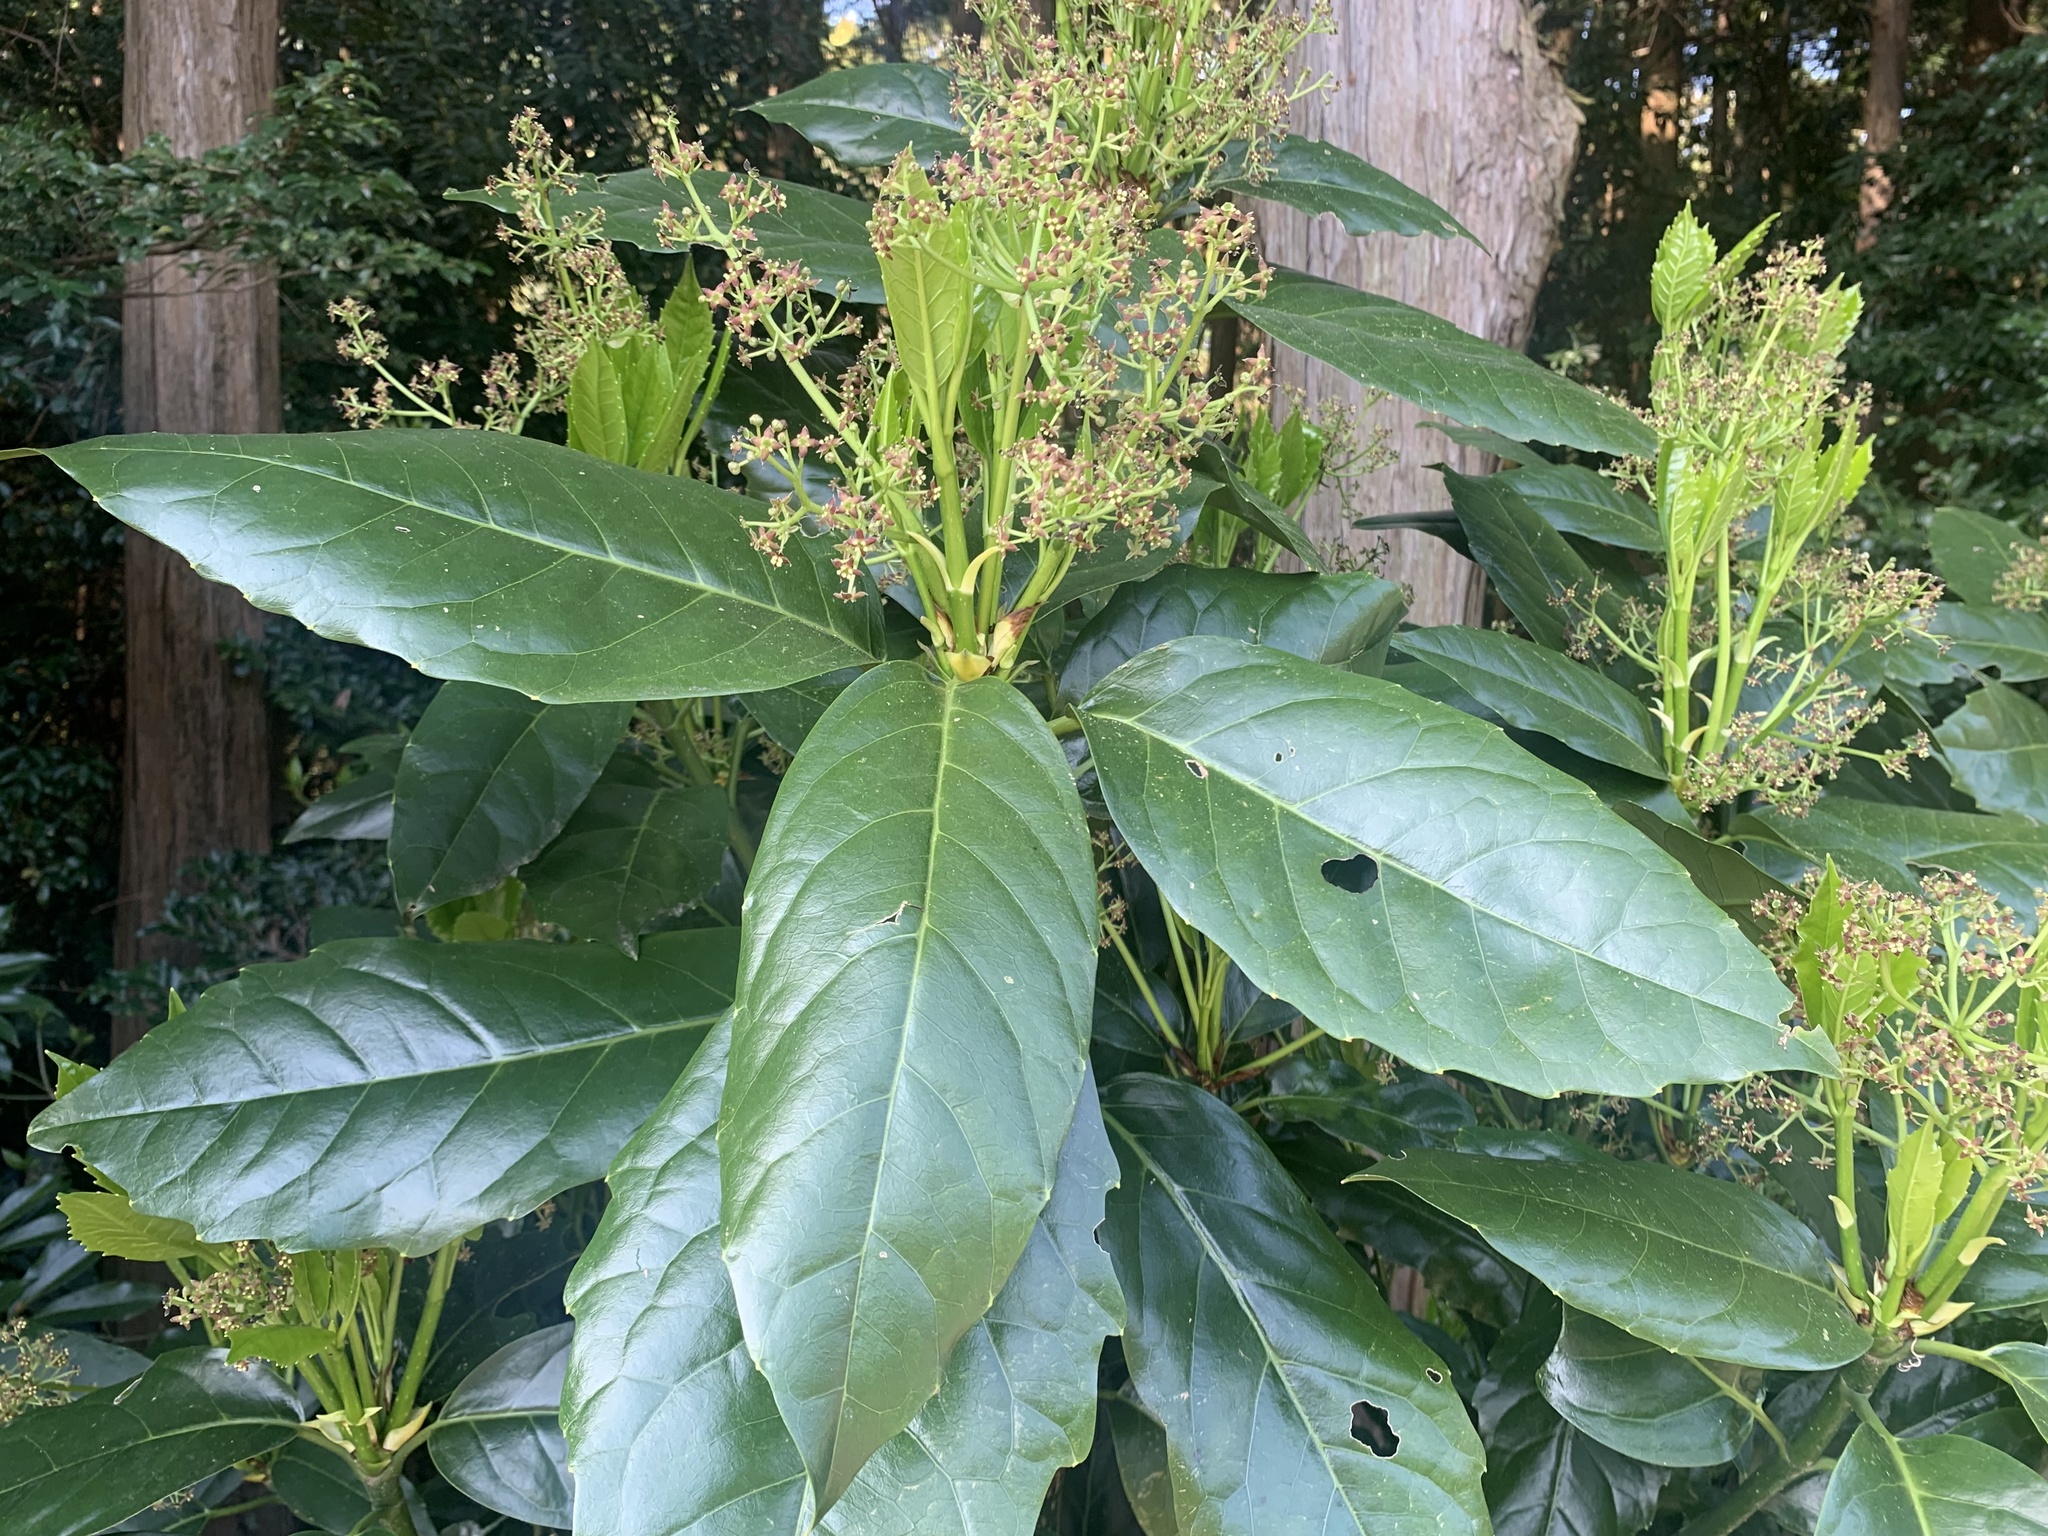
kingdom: Plantae
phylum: Tracheophyta
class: Magnoliopsida
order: Garryales
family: Garryaceae
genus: Aucuba
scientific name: Aucuba japonica
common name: Spotted-laurel
